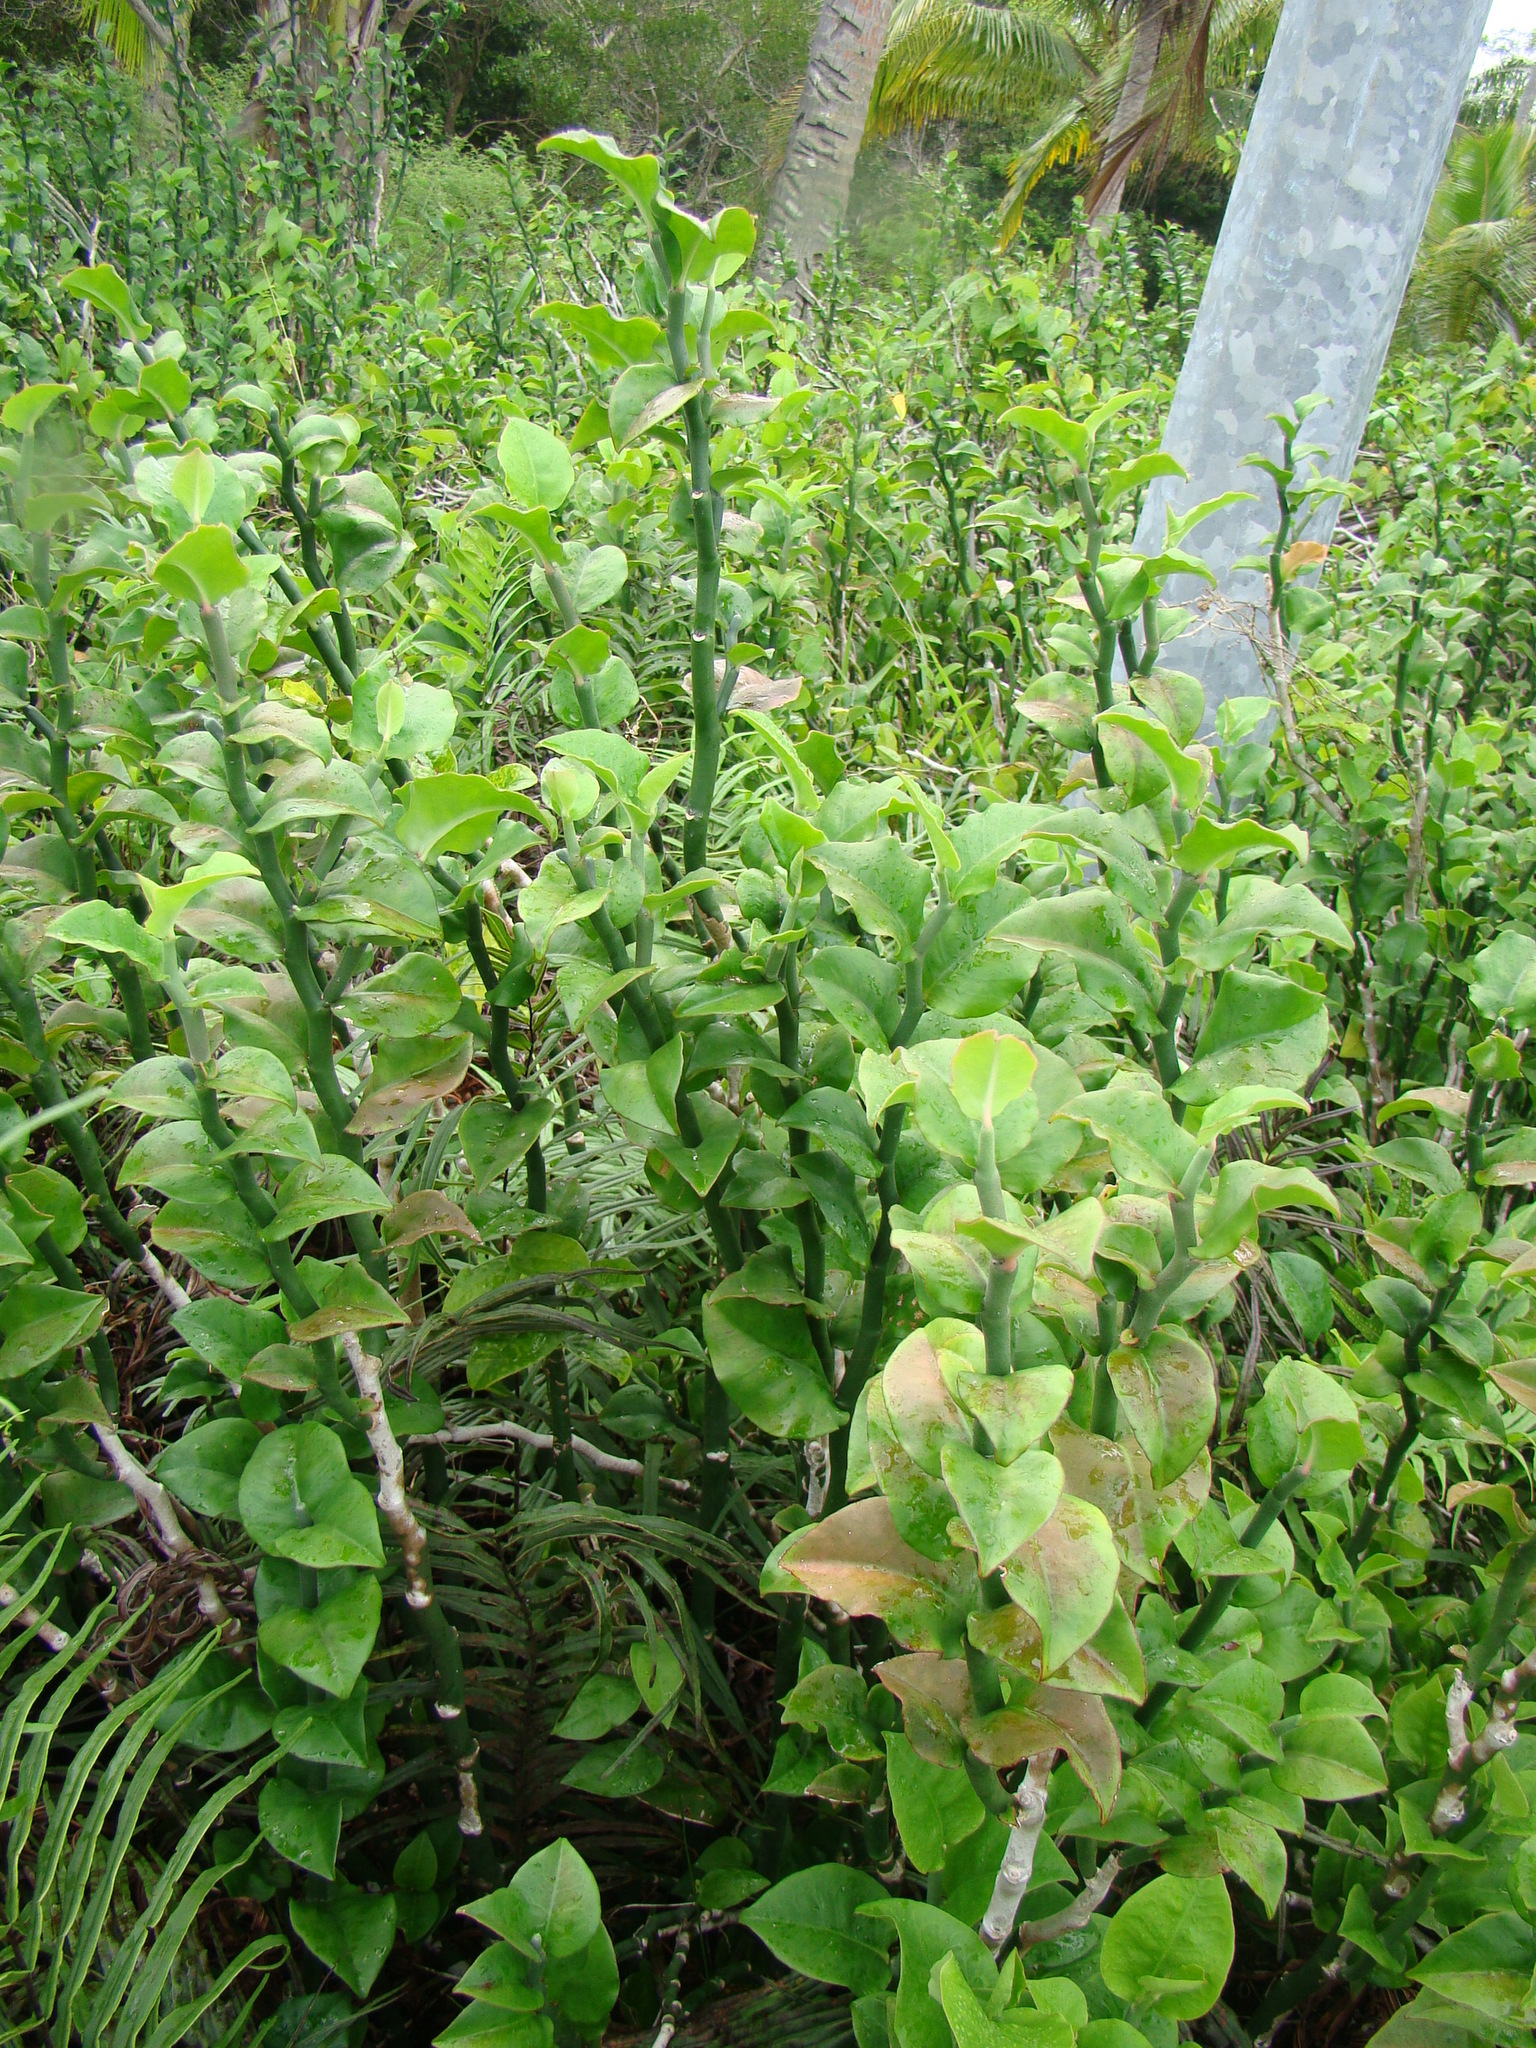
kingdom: Plantae
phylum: Tracheophyta
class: Magnoliopsida
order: Malpighiales
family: Euphorbiaceae
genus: Euphorbia
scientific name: Euphorbia tithymaloides
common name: Slipperplant
